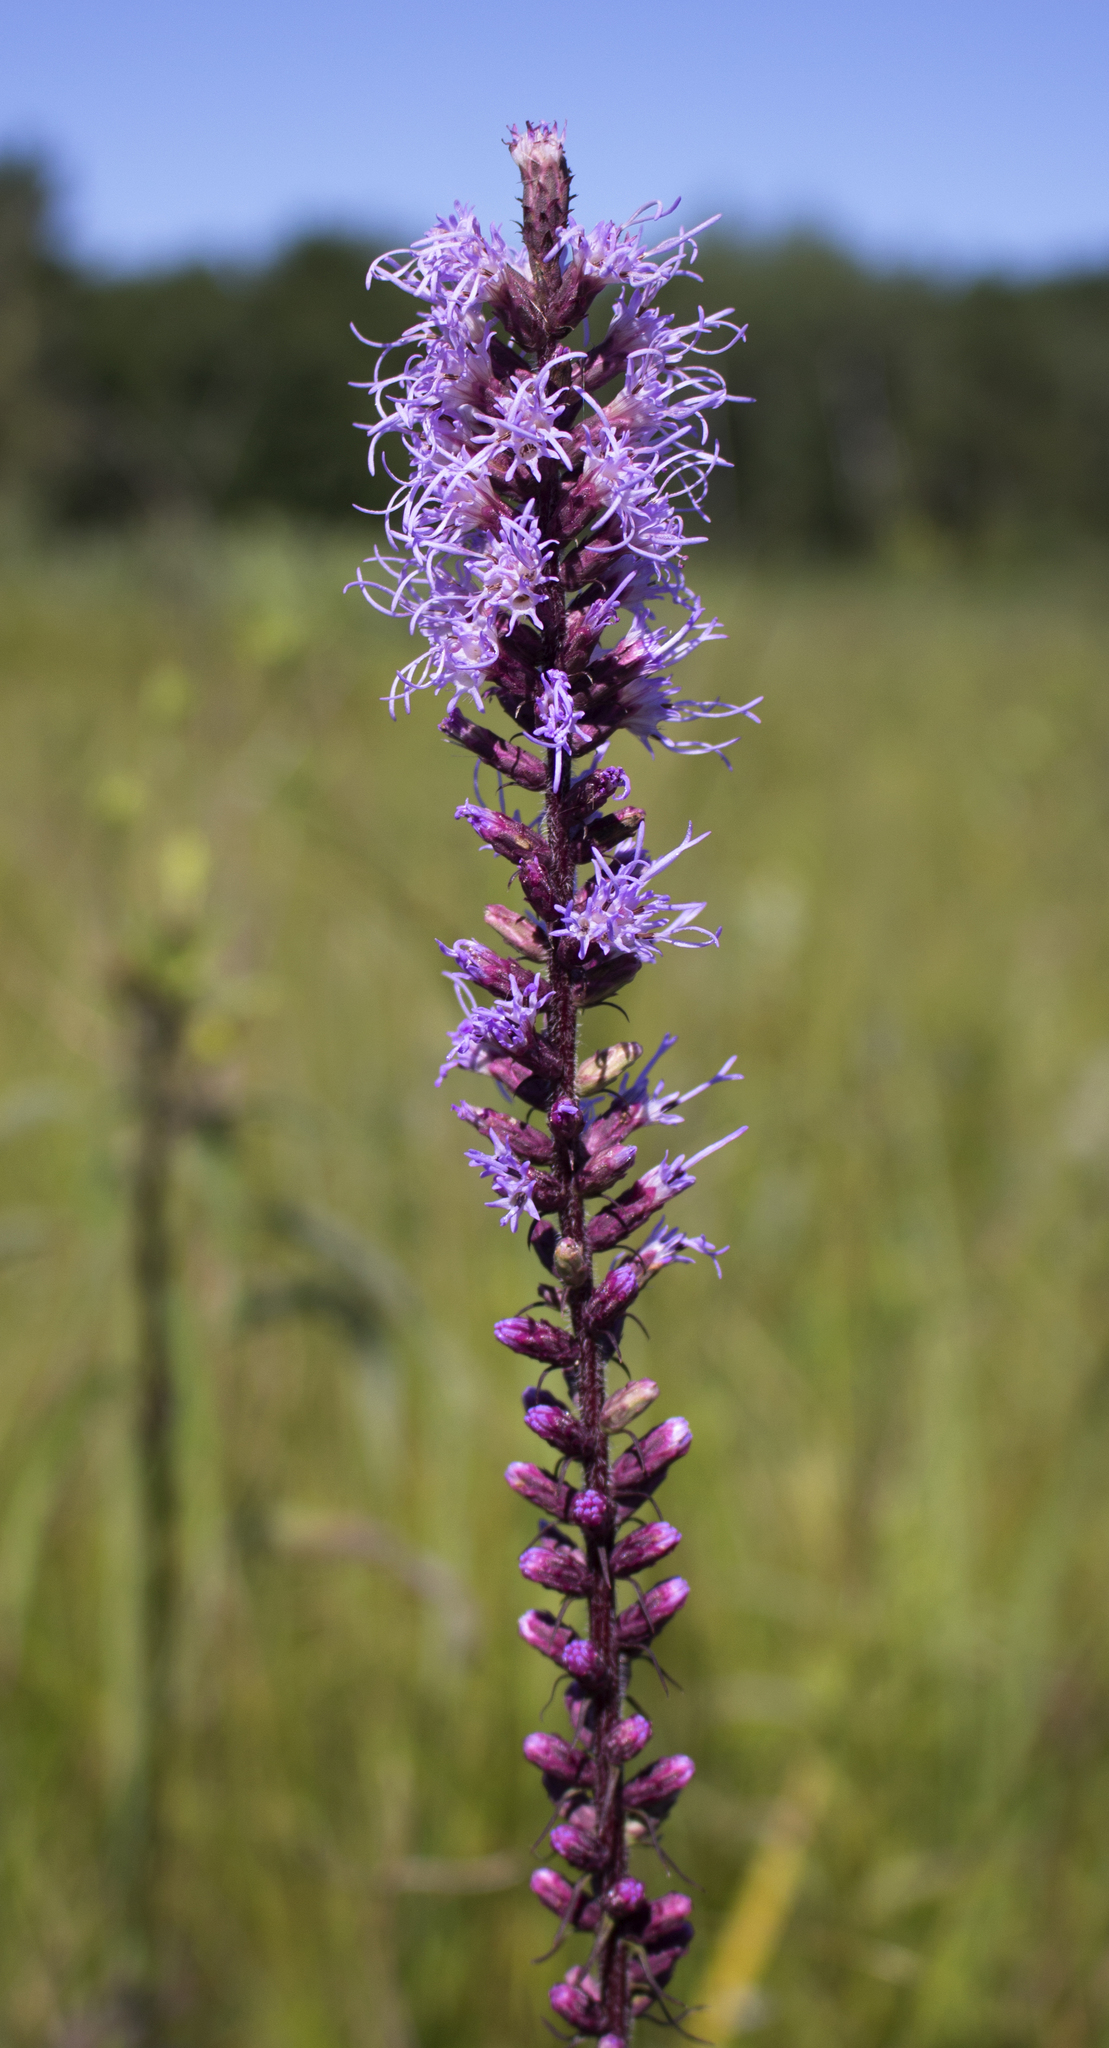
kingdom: Plantae
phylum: Tracheophyta
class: Magnoliopsida
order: Asterales
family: Asteraceae
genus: Liatris
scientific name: Liatris pycnostachya
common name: Cattail gayfeather
